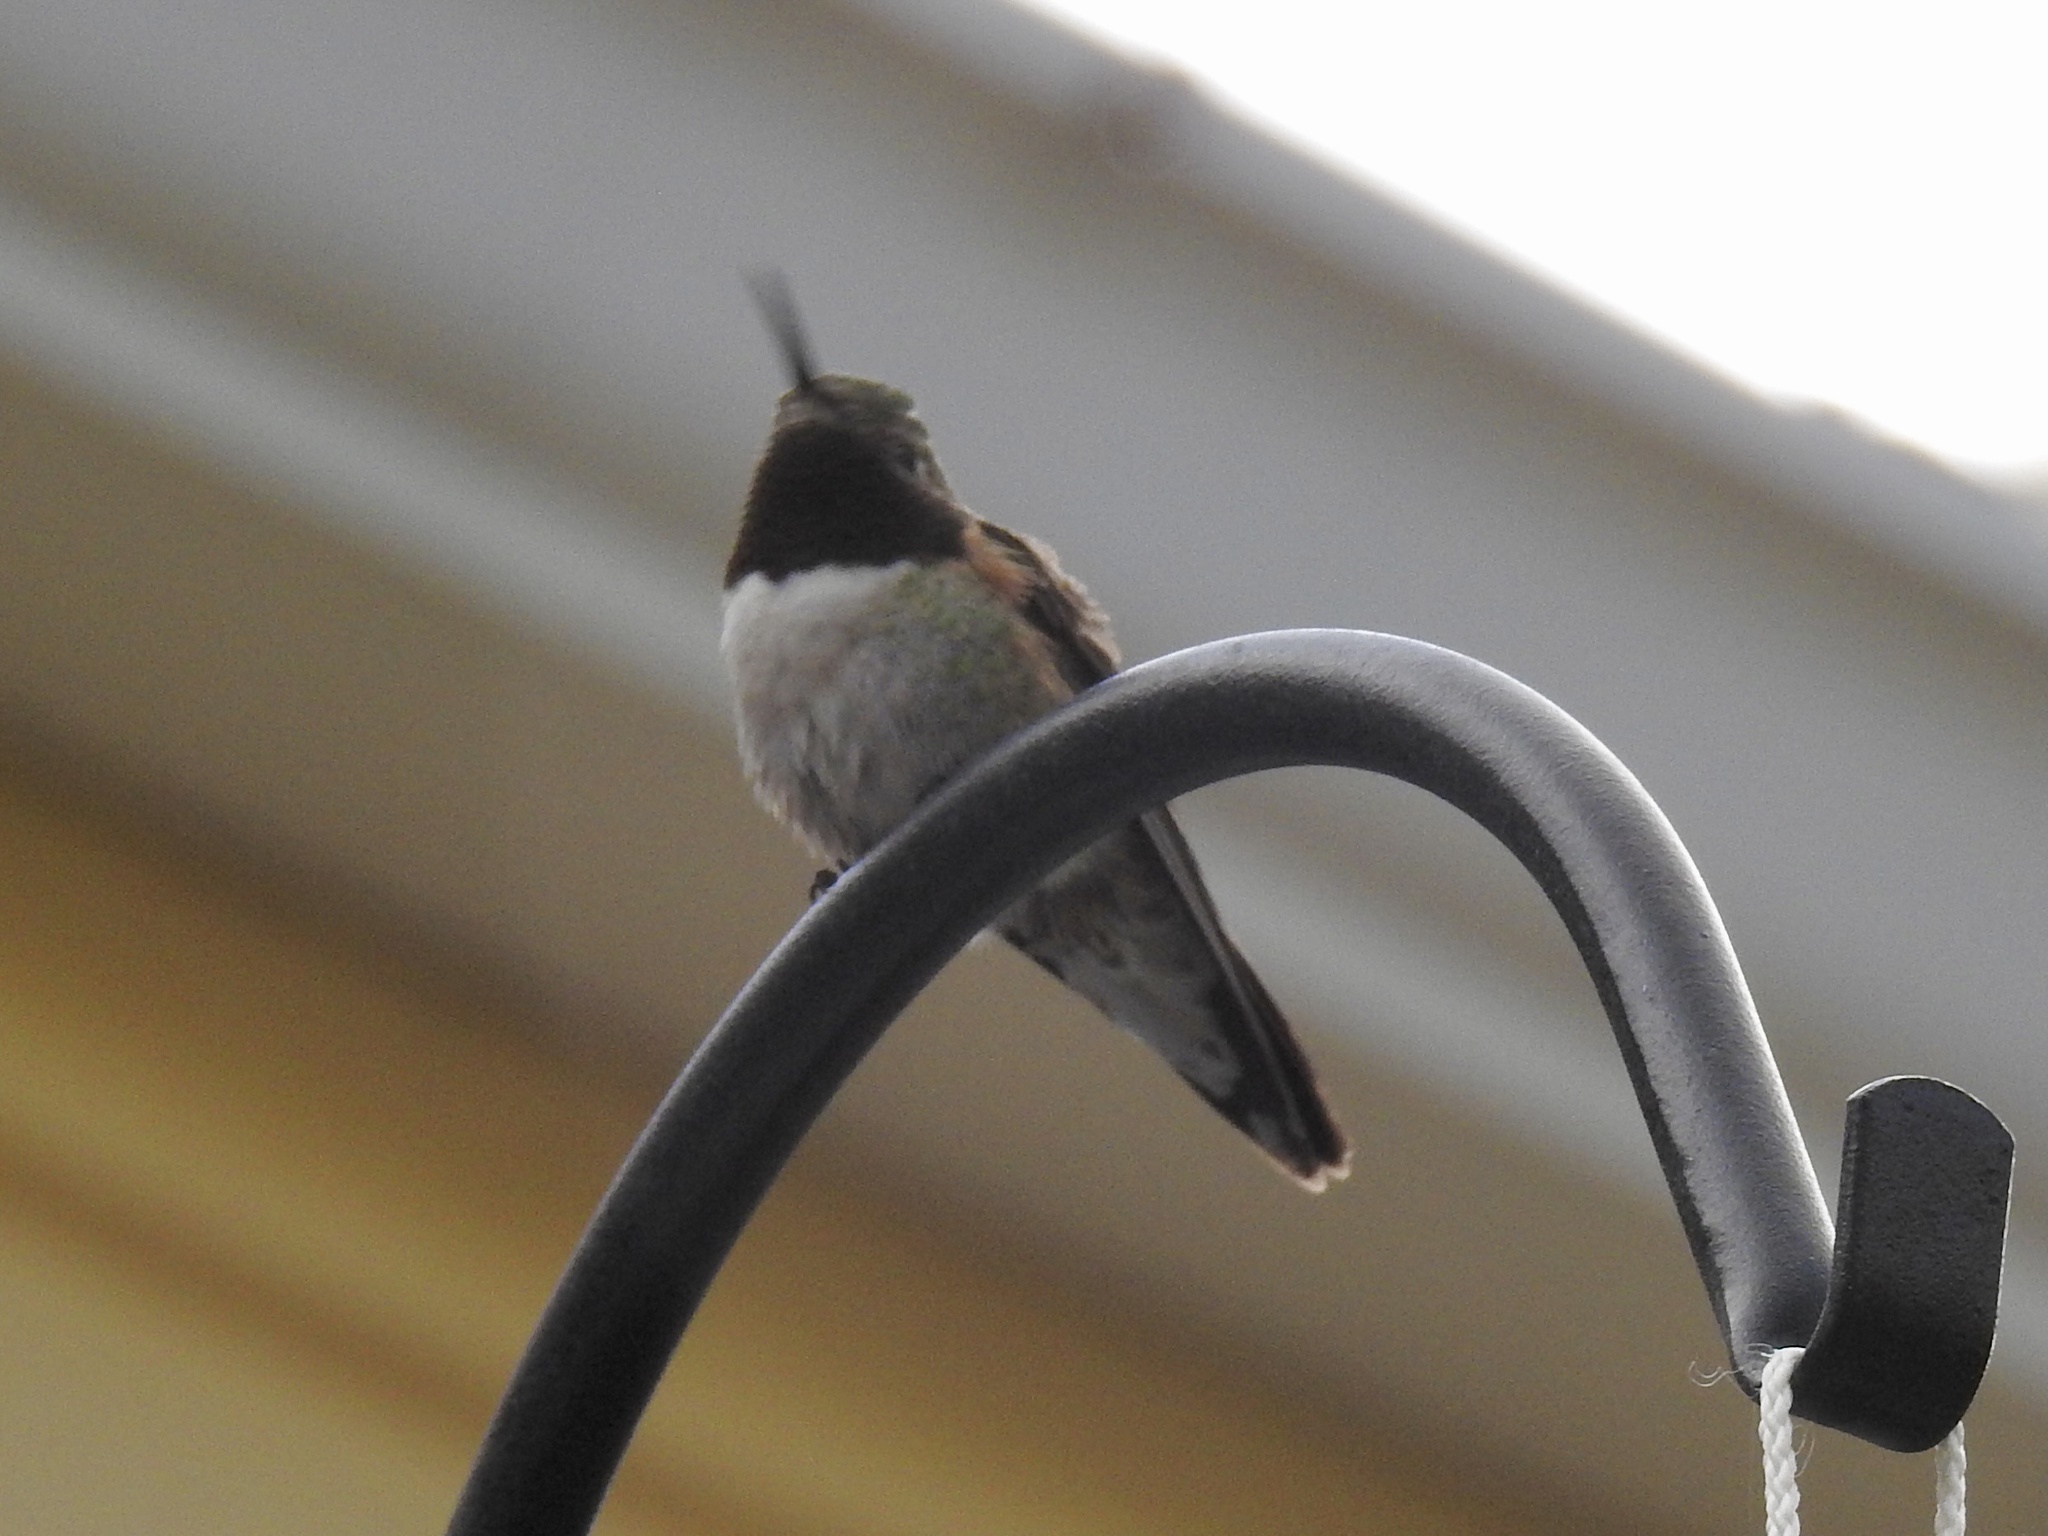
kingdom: Animalia
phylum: Chordata
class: Aves
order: Apodiformes
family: Trochilidae
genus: Selasphorus
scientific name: Selasphorus platycercus
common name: Broad-tailed hummingbird
